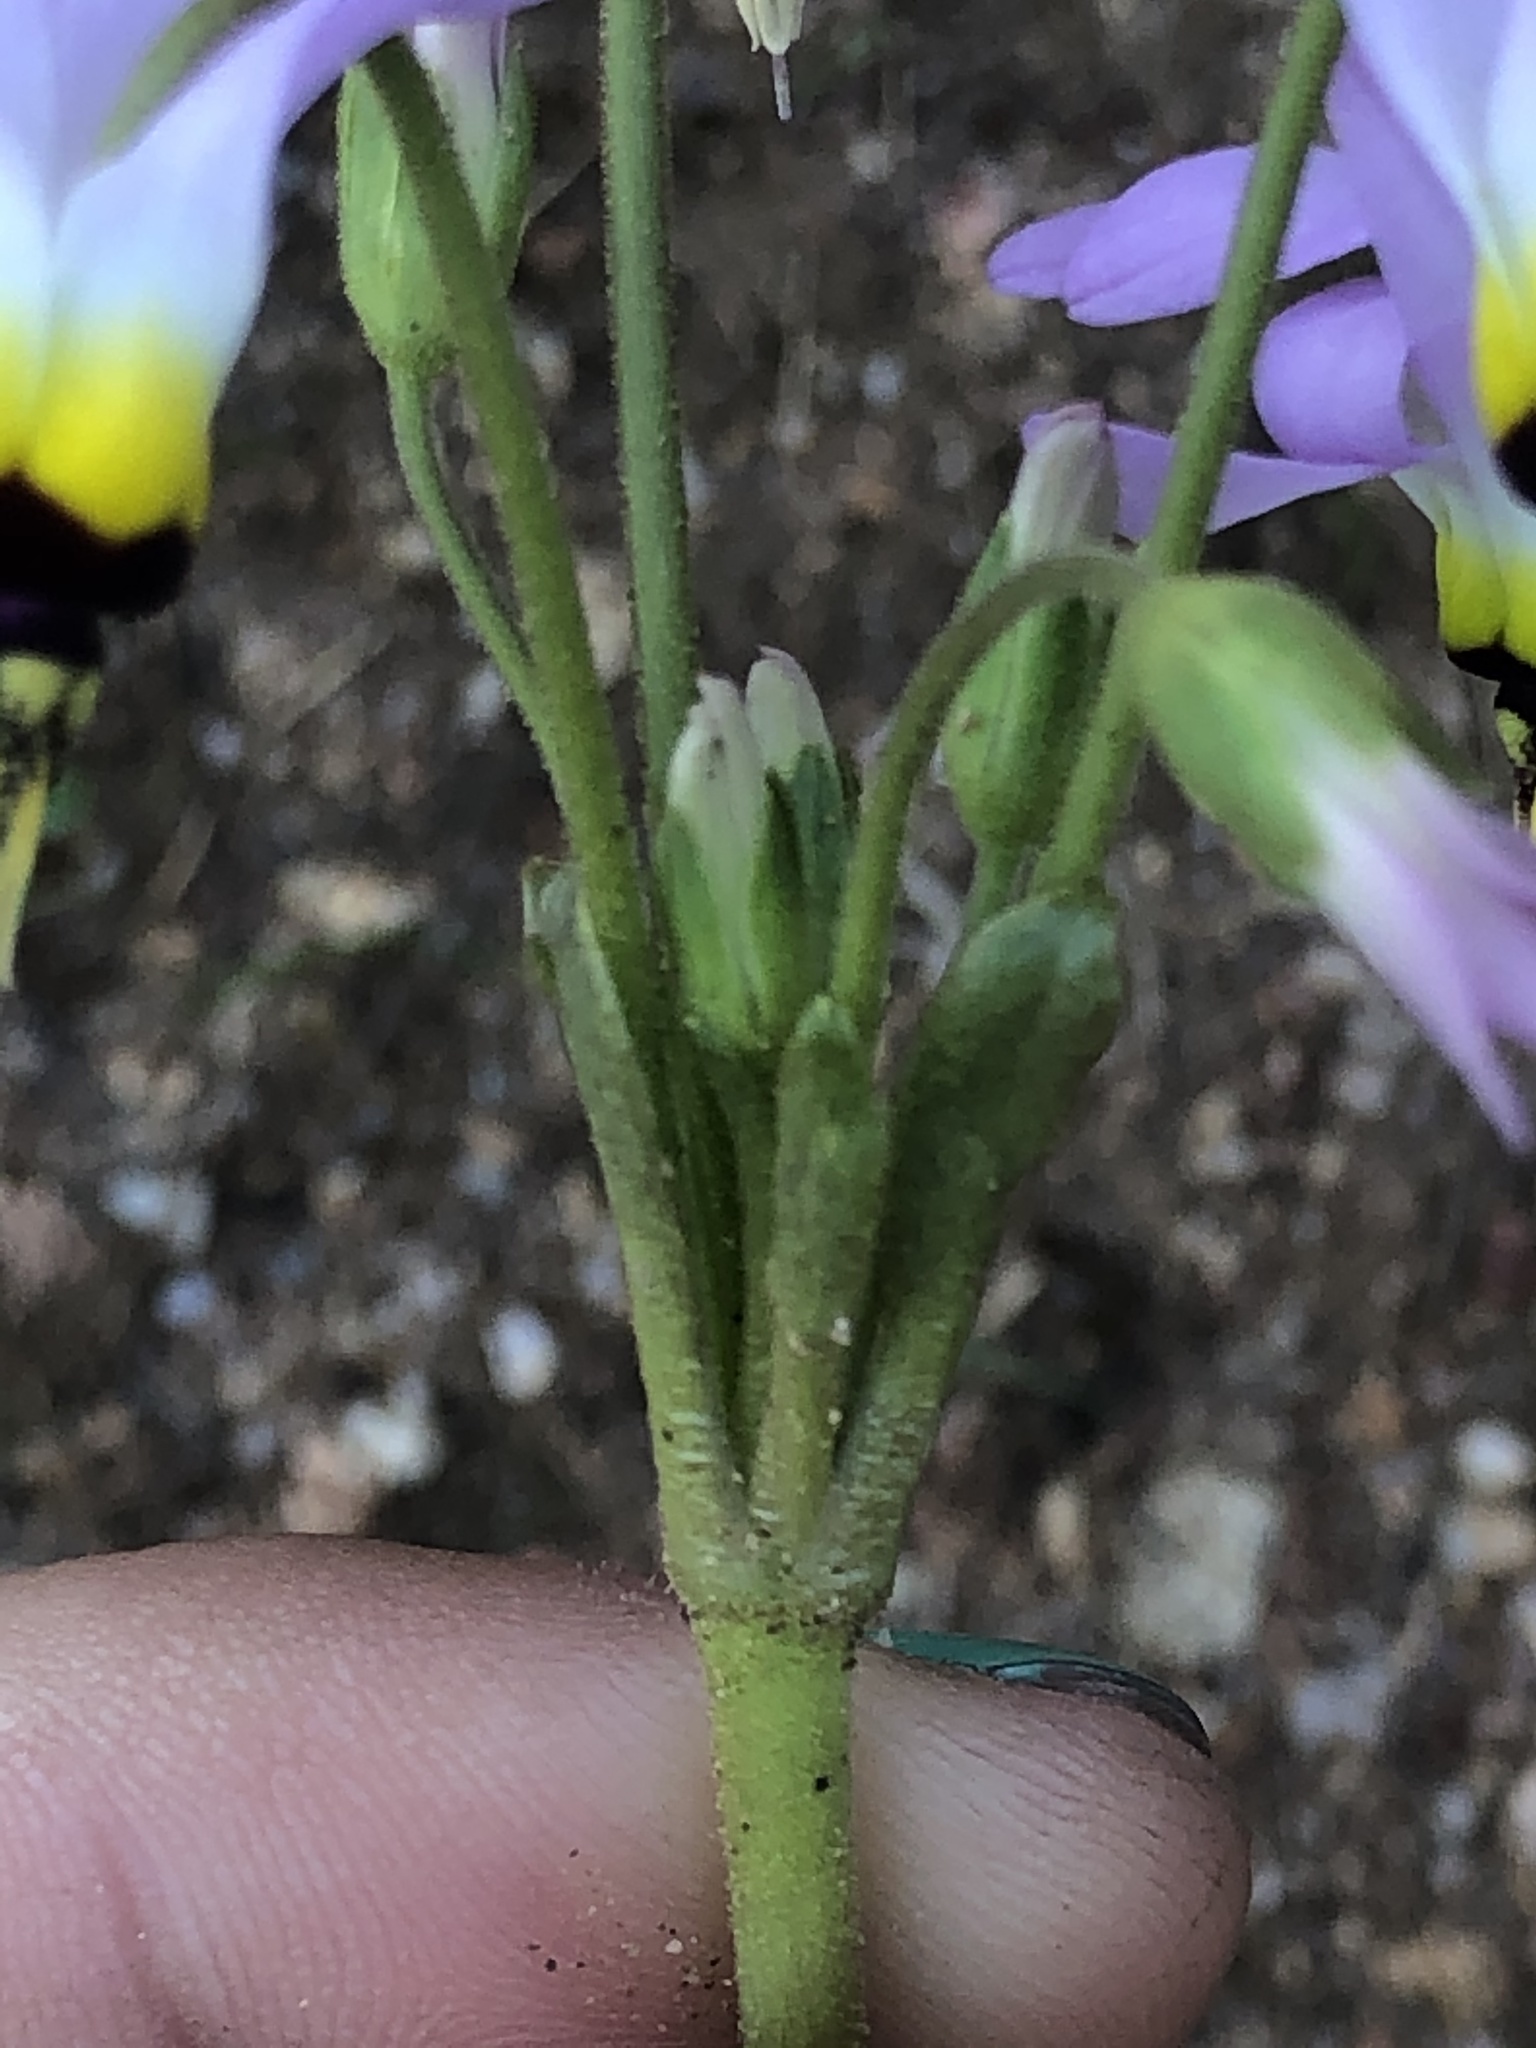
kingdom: Plantae
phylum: Tracheophyta
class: Magnoliopsida
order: Ericales
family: Primulaceae
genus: Dodecatheon
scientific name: Dodecatheon clevelandii
